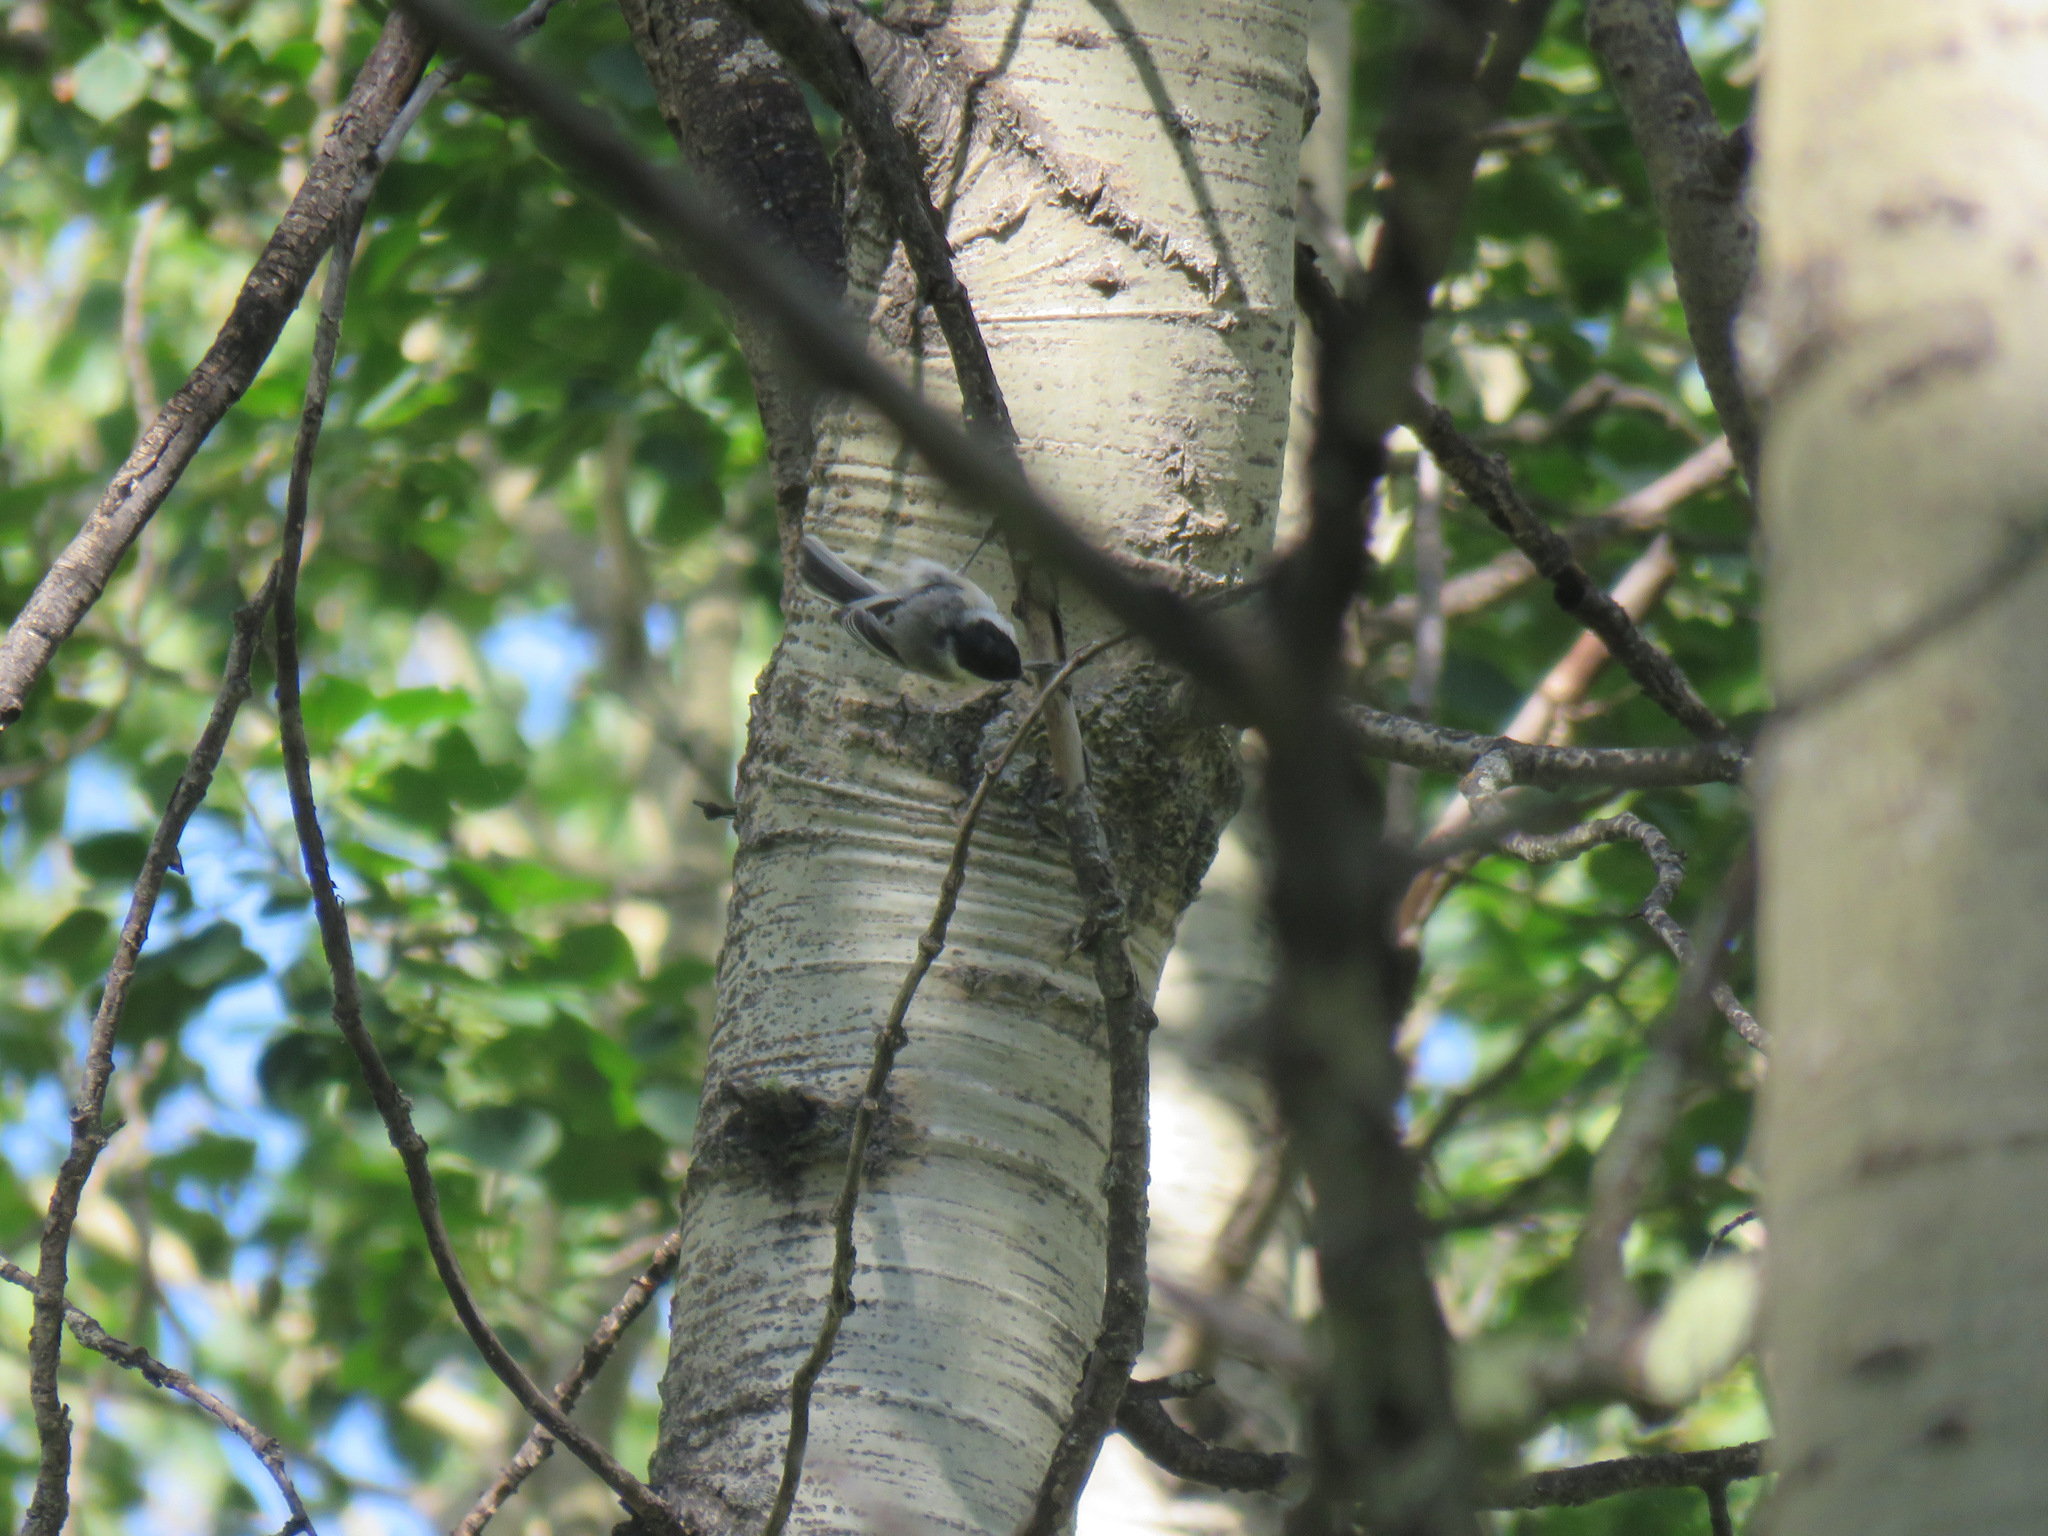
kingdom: Animalia
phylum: Chordata
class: Aves
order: Passeriformes
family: Paridae
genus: Poecile
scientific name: Poecile atricapillus
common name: Black-capped chickadee
